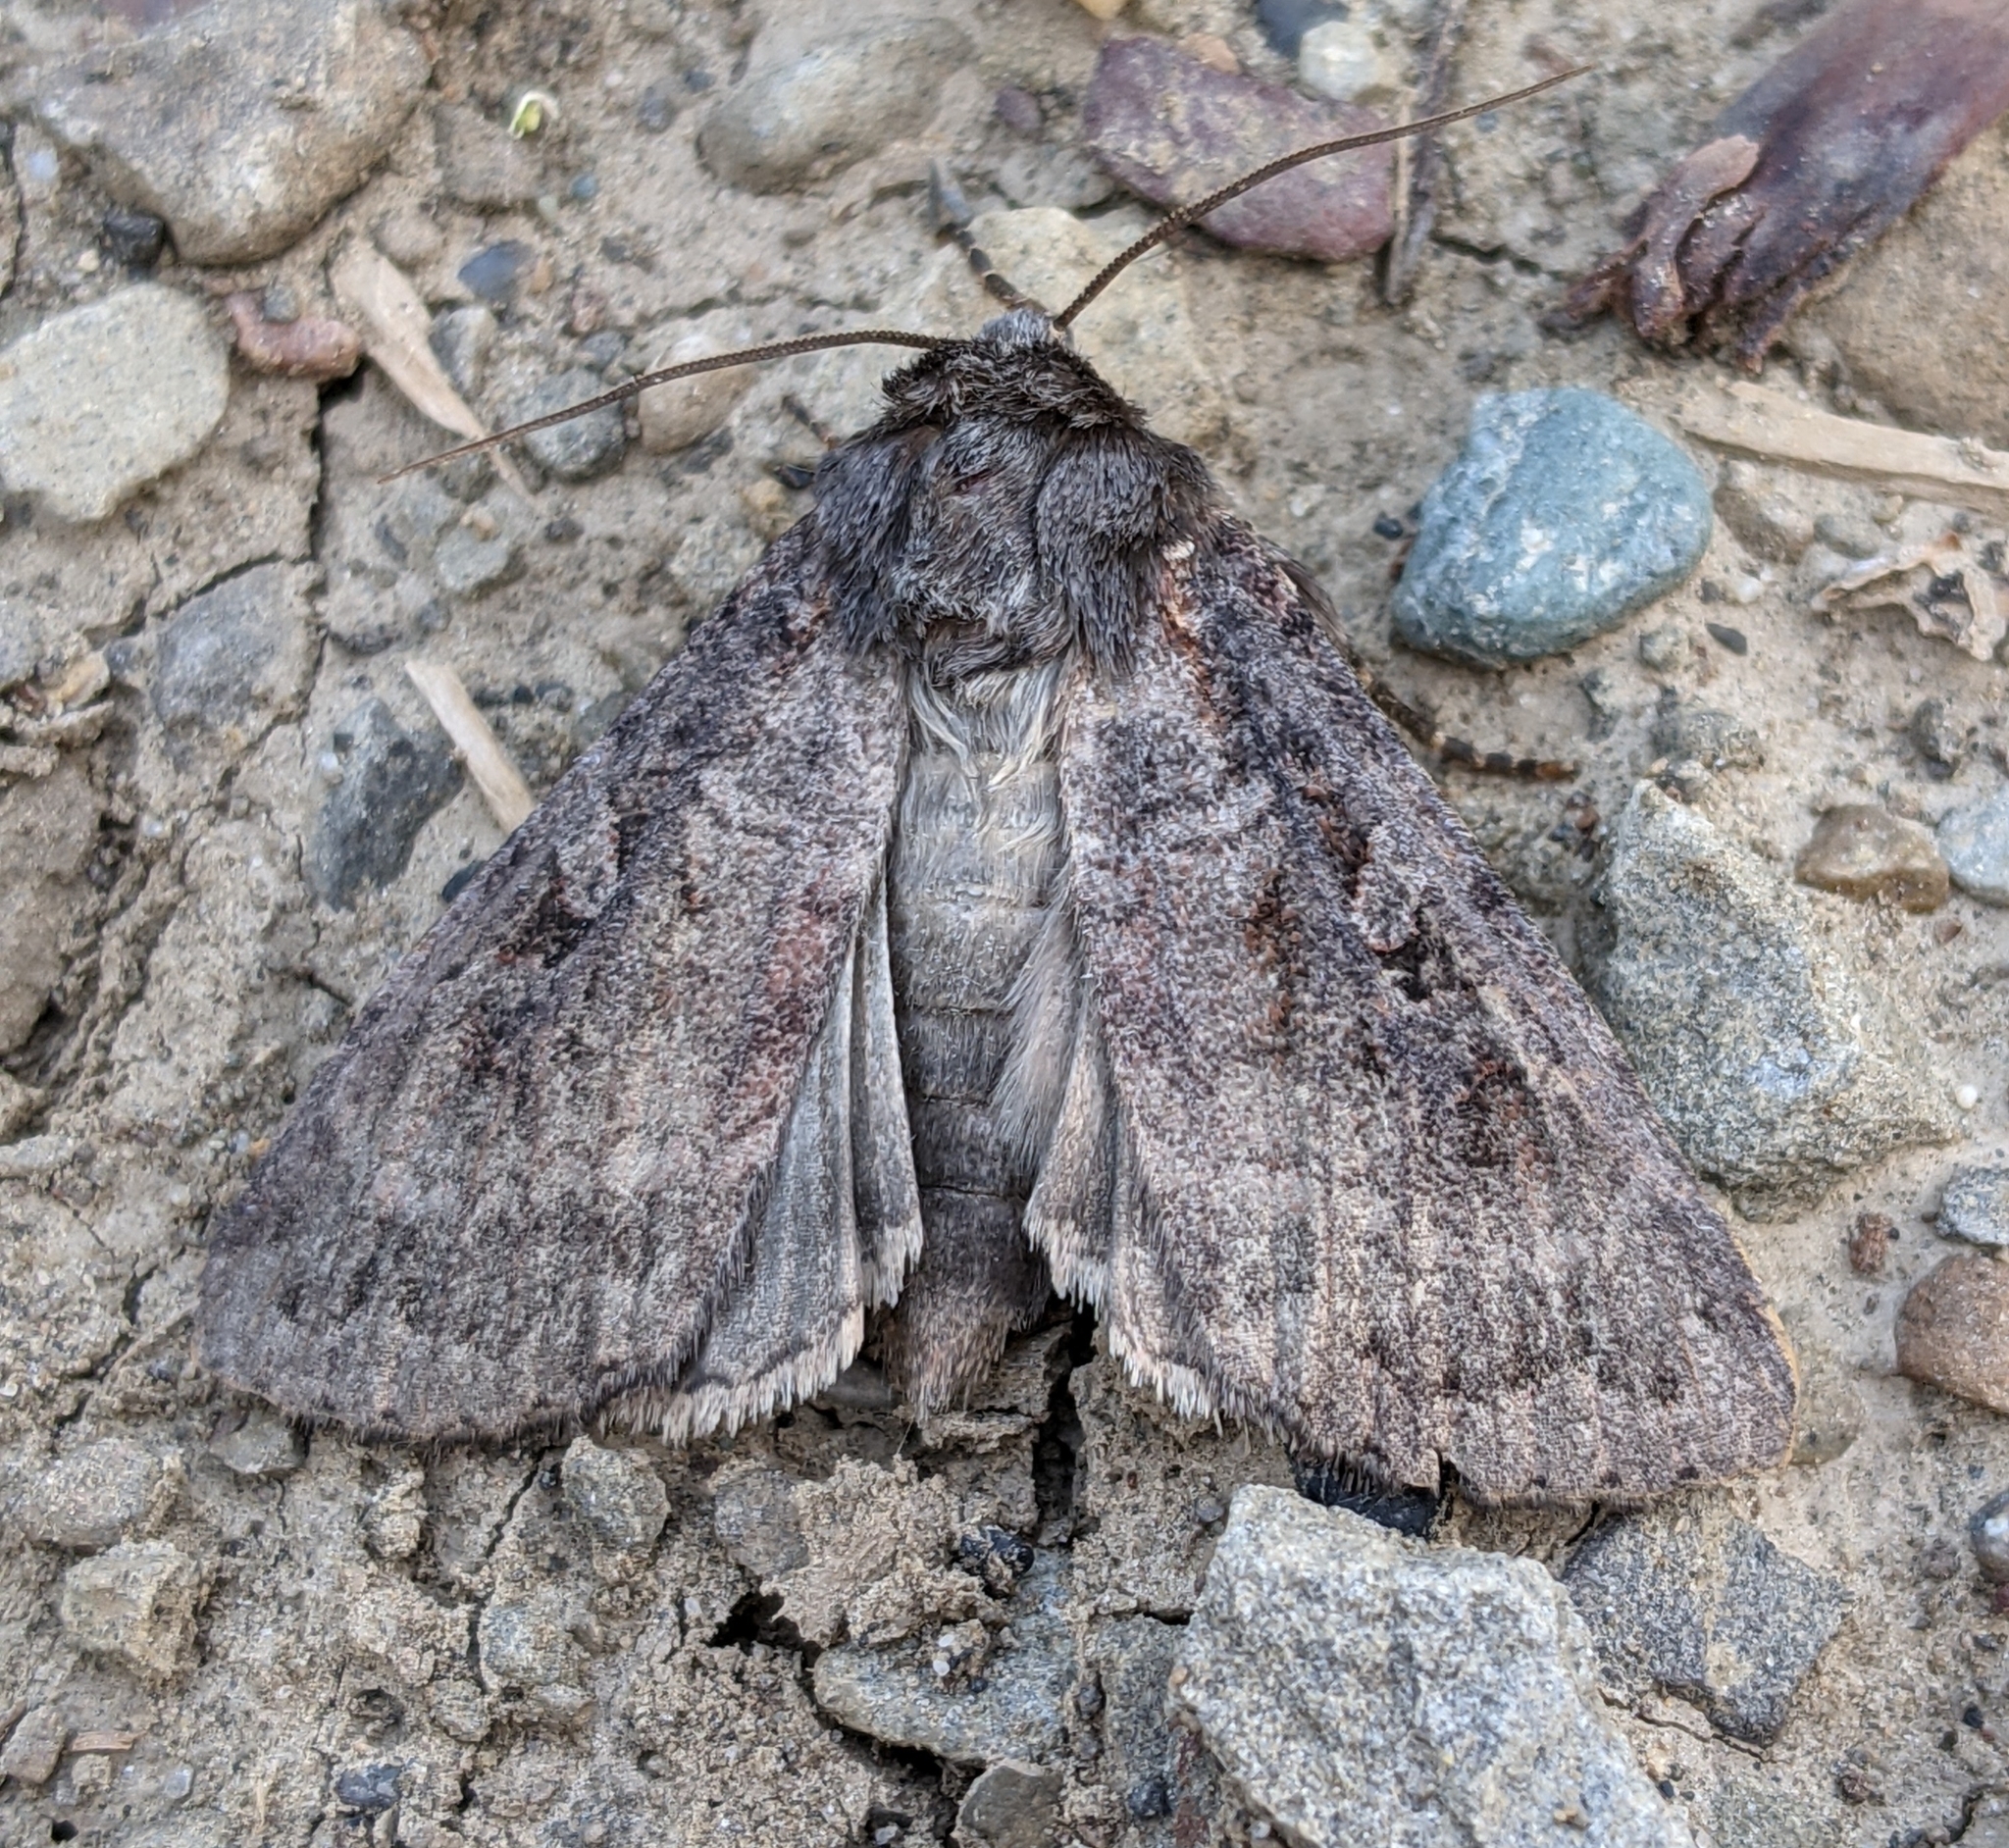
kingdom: Animalia
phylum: Arthropoda
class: Insecta
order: Lepidoptera
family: Noctuidae
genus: Eurois
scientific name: Eurois astricta
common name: Great brown dart
